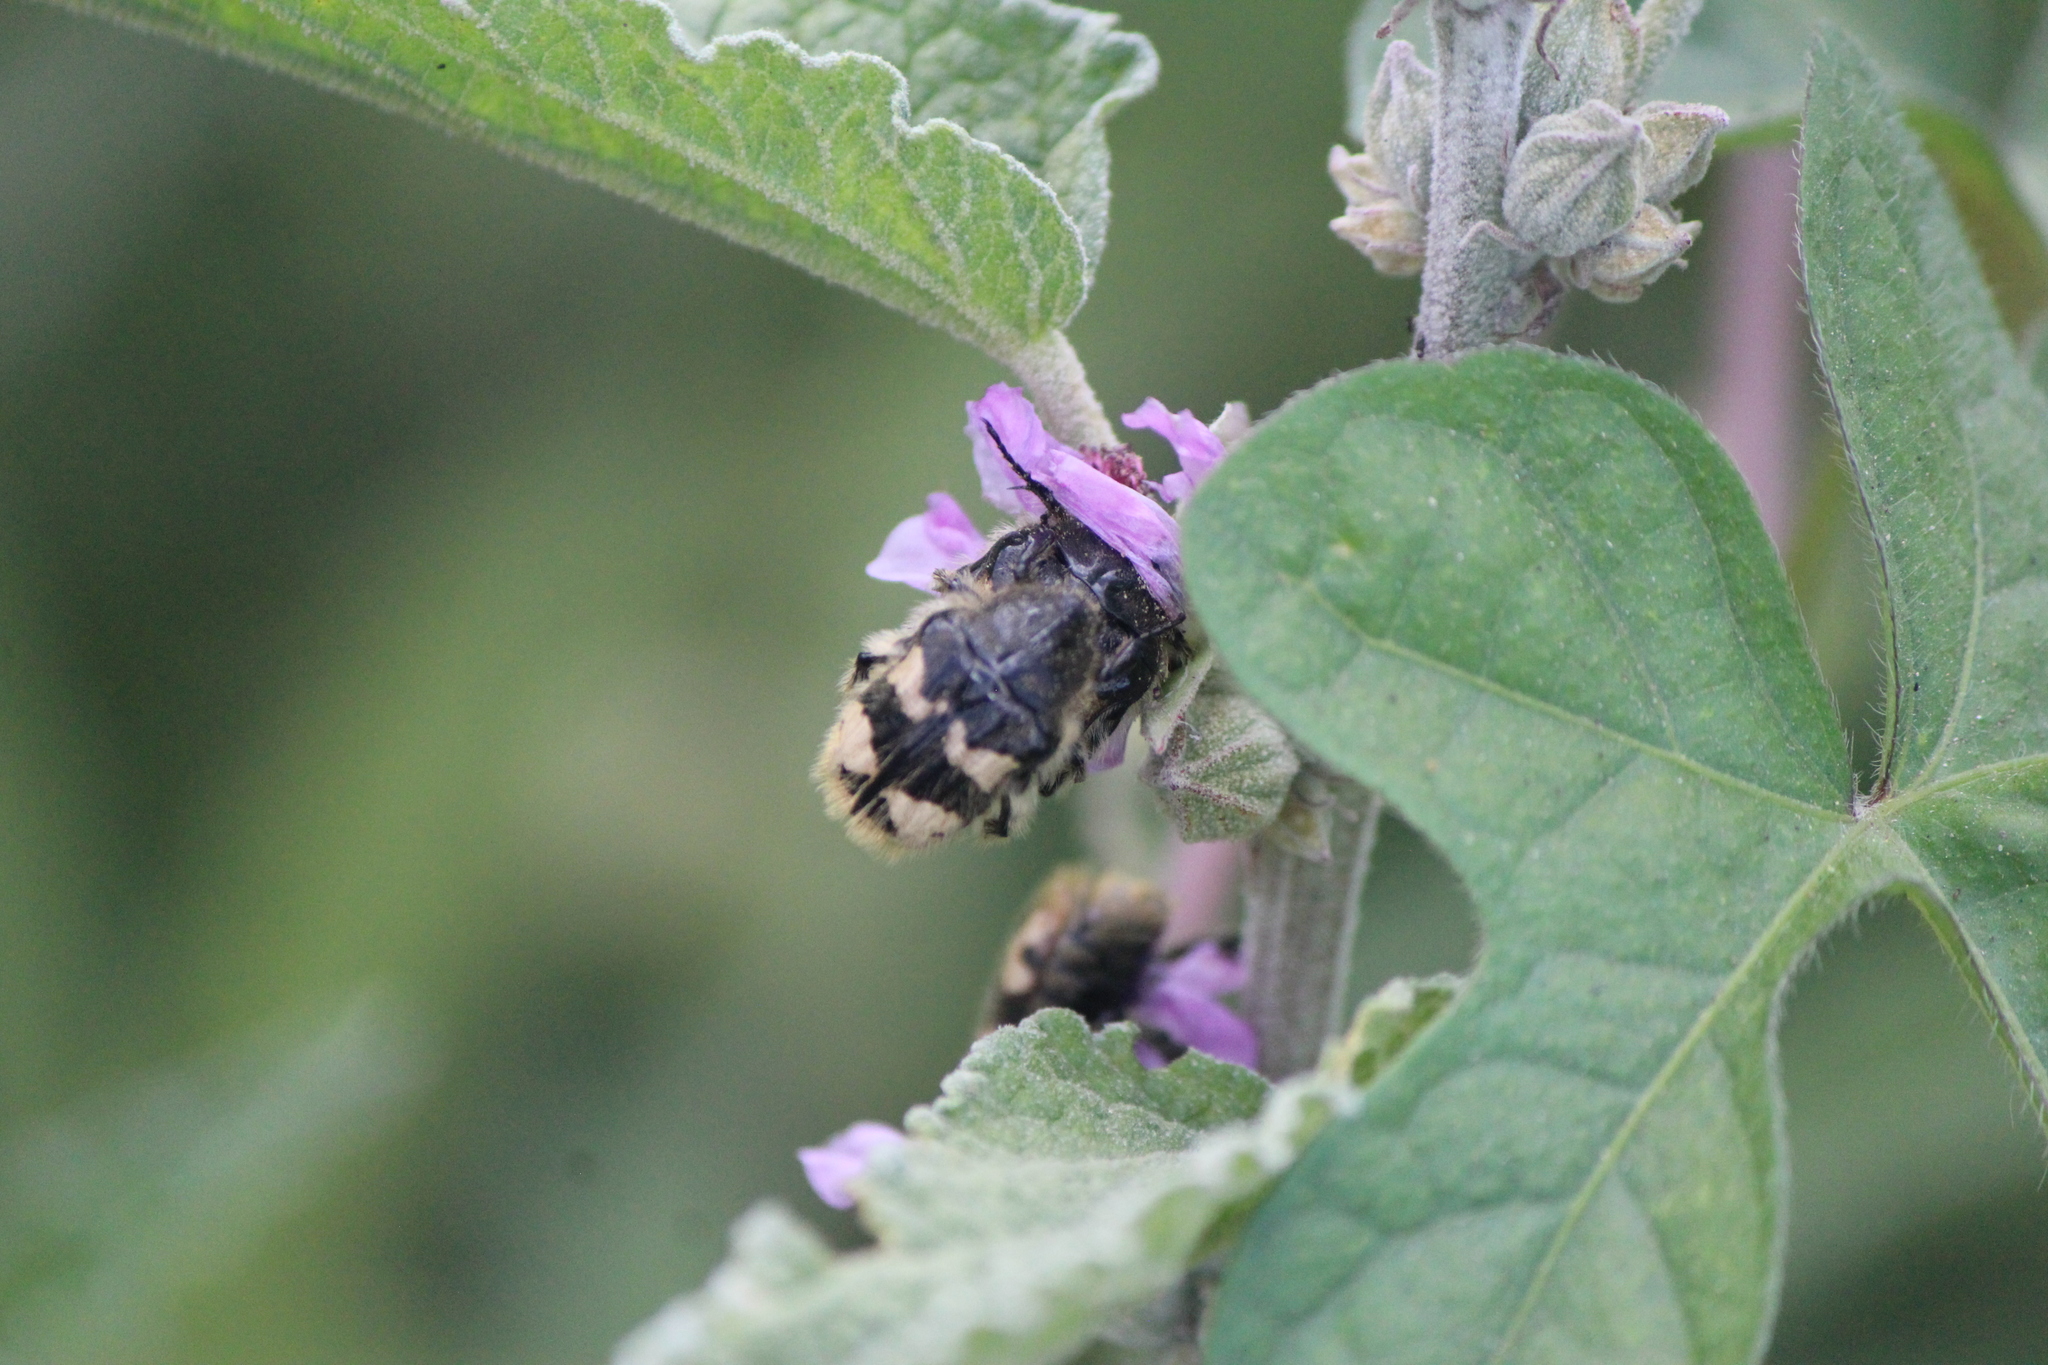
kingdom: Animalia
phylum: Arthropoda
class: Insecta
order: Coleoptera
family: Scarabaeidae
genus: Euphoria
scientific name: Euphoria basalis
